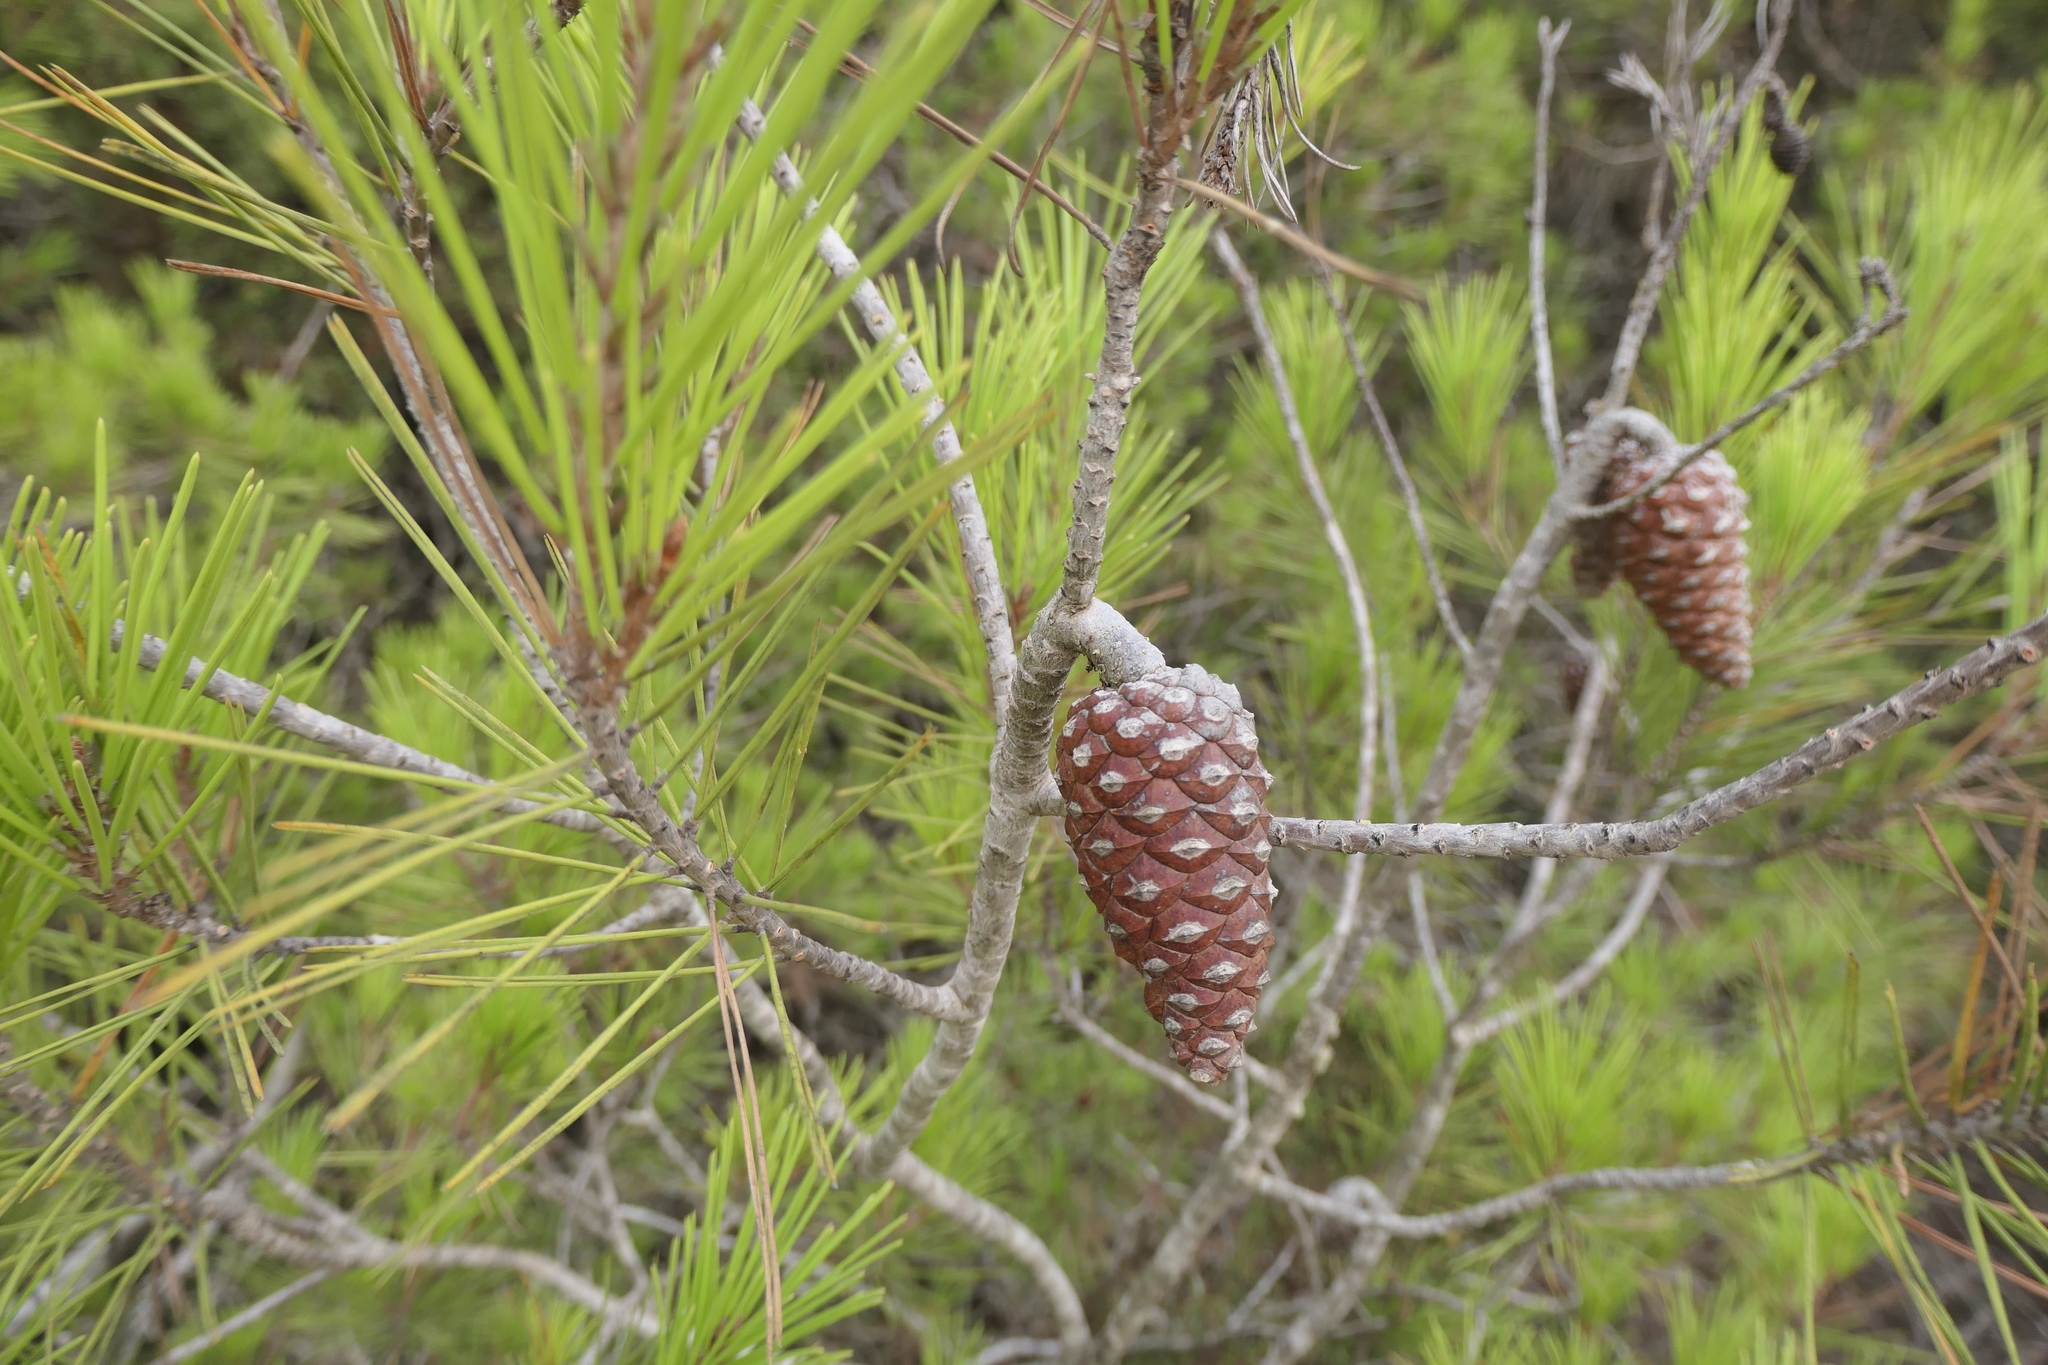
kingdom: Plantae
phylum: Tracheophyta
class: Pinopsida
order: Pinales
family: Pinaceae
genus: Pinus
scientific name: Pinus halepensis
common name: Aleppo pine
